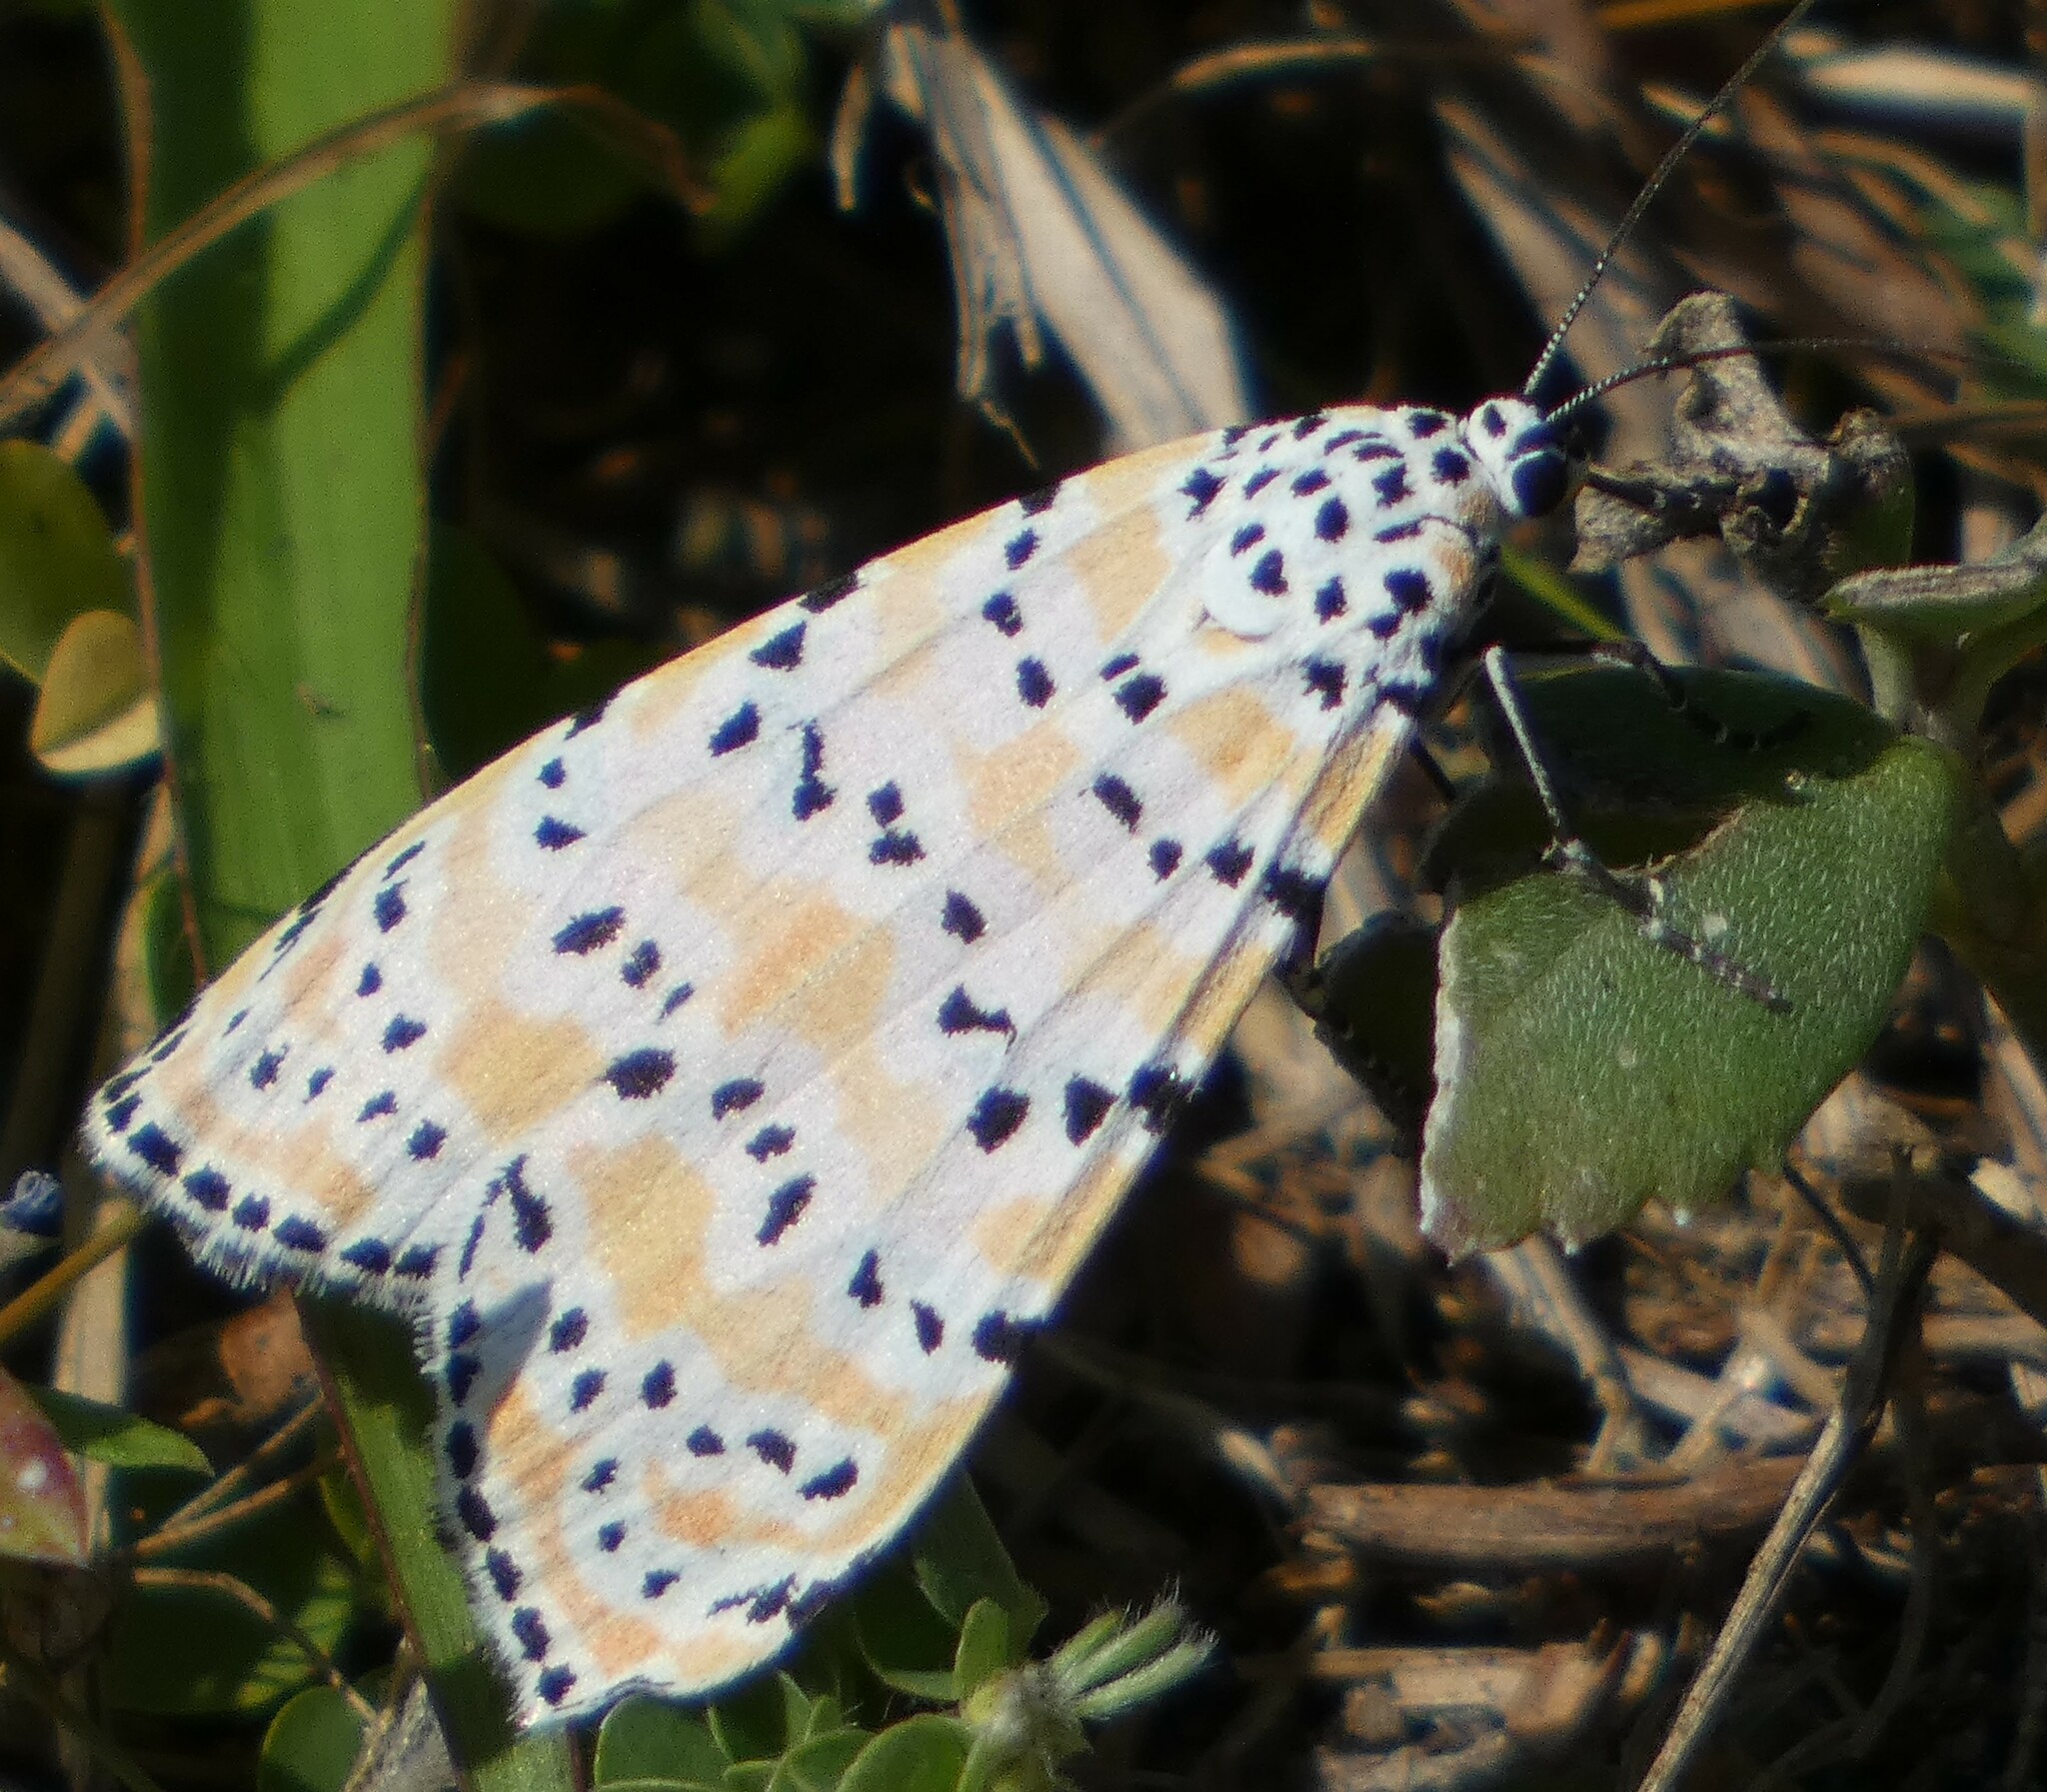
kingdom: Animalia
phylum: Arthropoda
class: Insecta
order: Lepidoptera
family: Erebidae
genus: Utetheisa
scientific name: Utetheisa ornatrix
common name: Beautiful utetheisa
